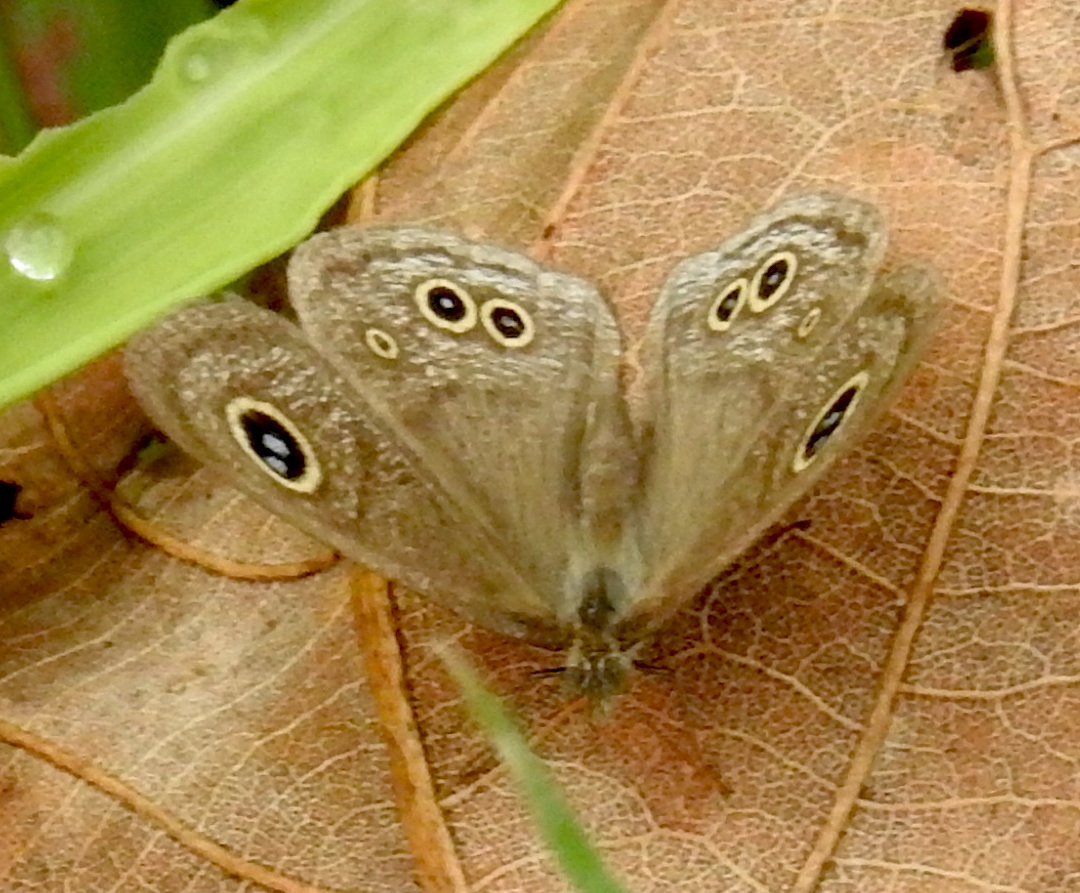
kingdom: Animalia
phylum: Arthropoda
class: Insecta
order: Lepidoptera
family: Nymphalidae
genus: Ypthima
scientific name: Ypthima baldus
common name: Common five-ring
